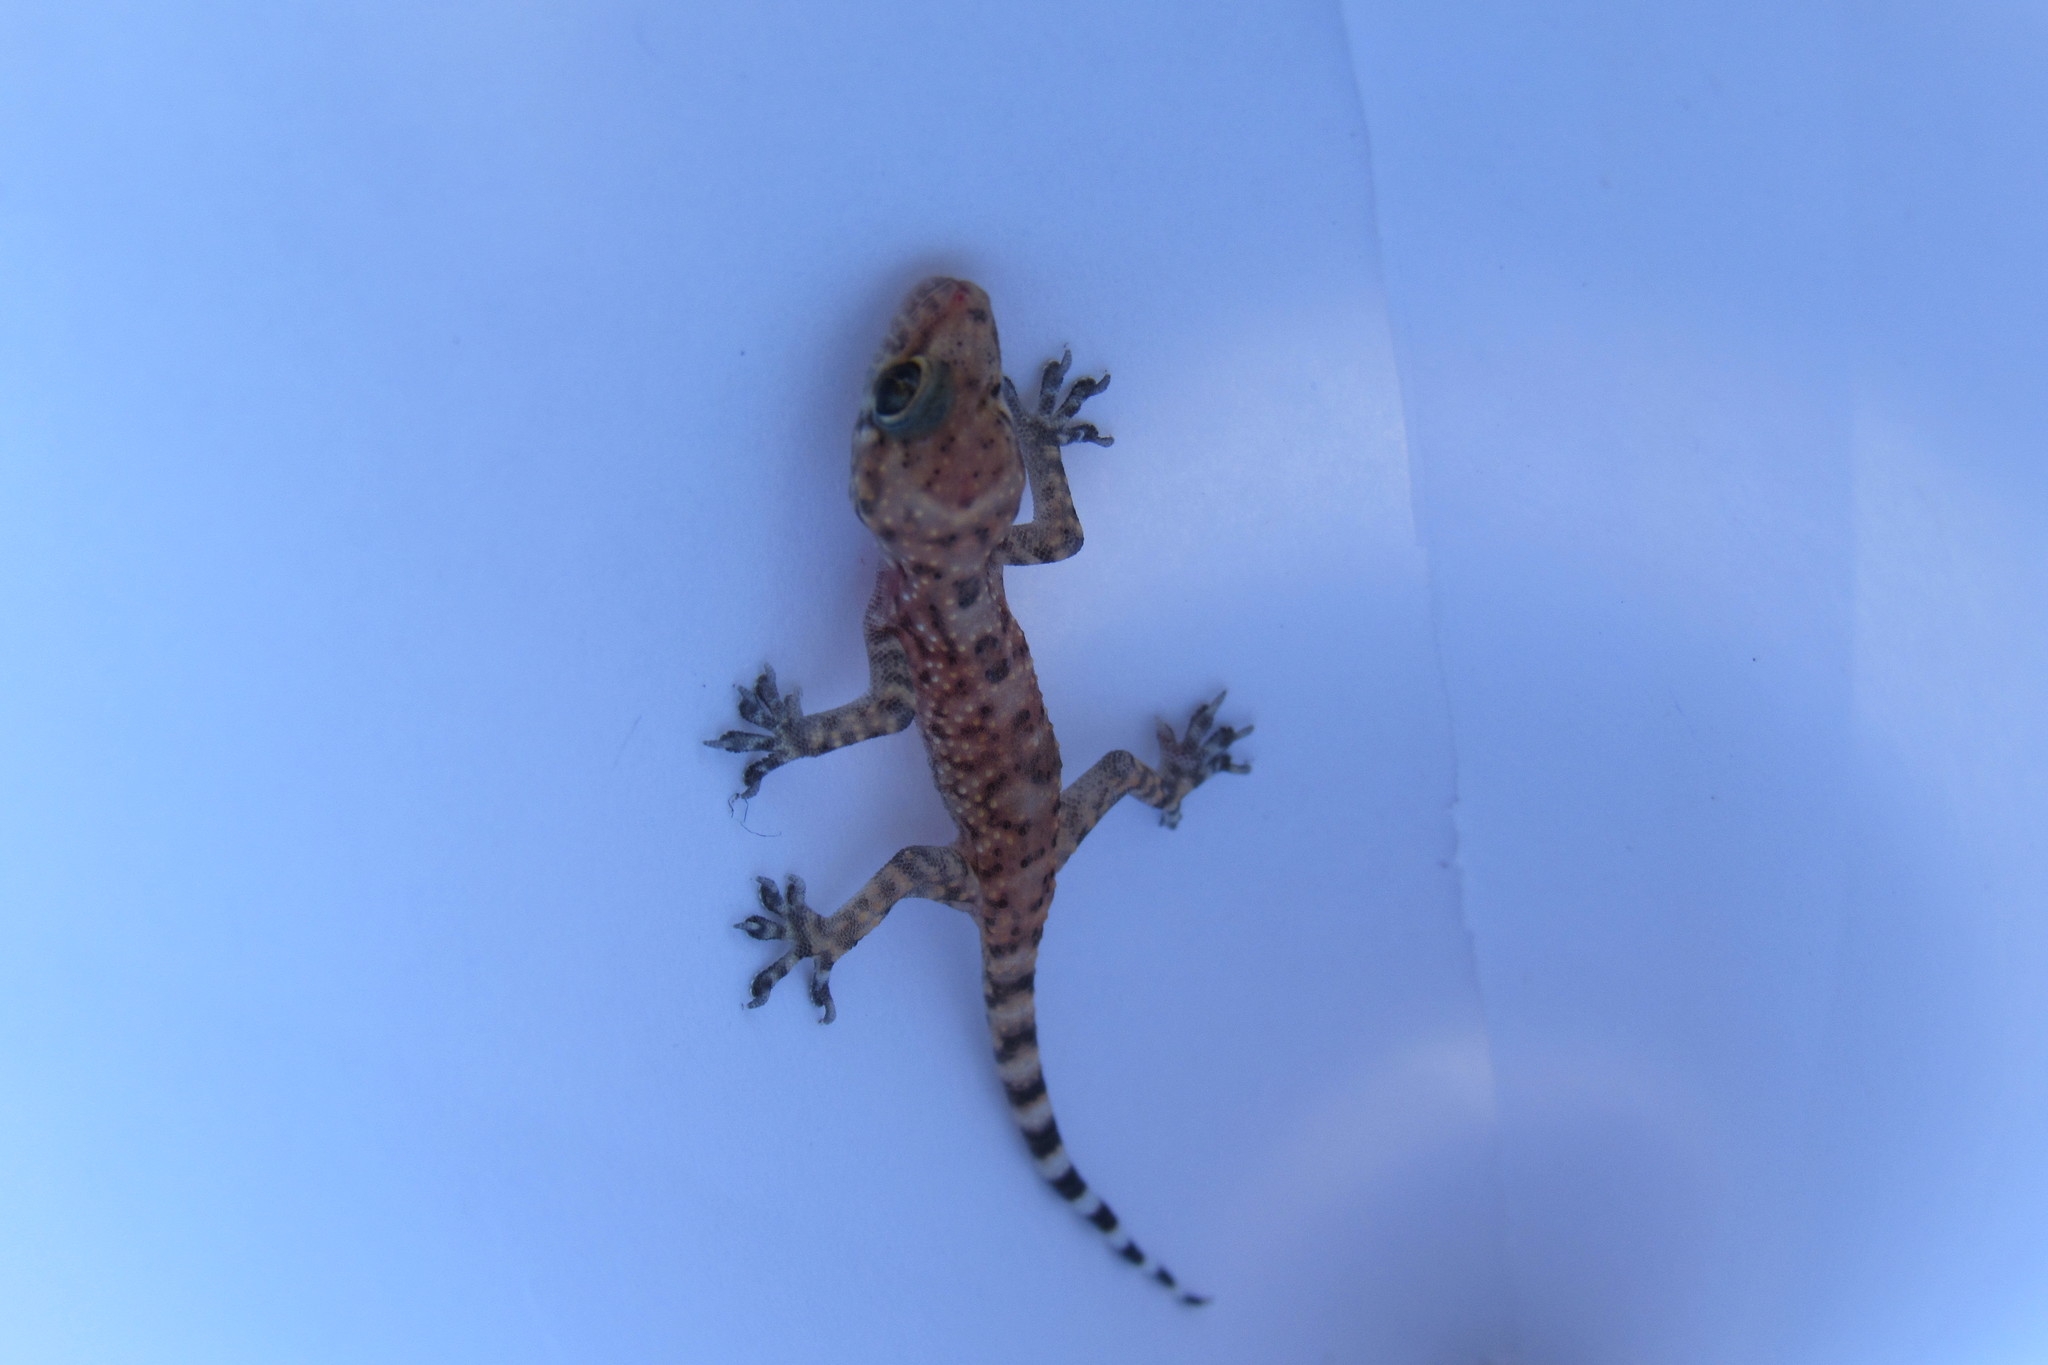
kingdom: Animalia
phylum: Chordata
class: Squamata
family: Gekkonidae
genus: Hemidactylus
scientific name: Hemidactylus turcicus
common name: Turkish gecko
